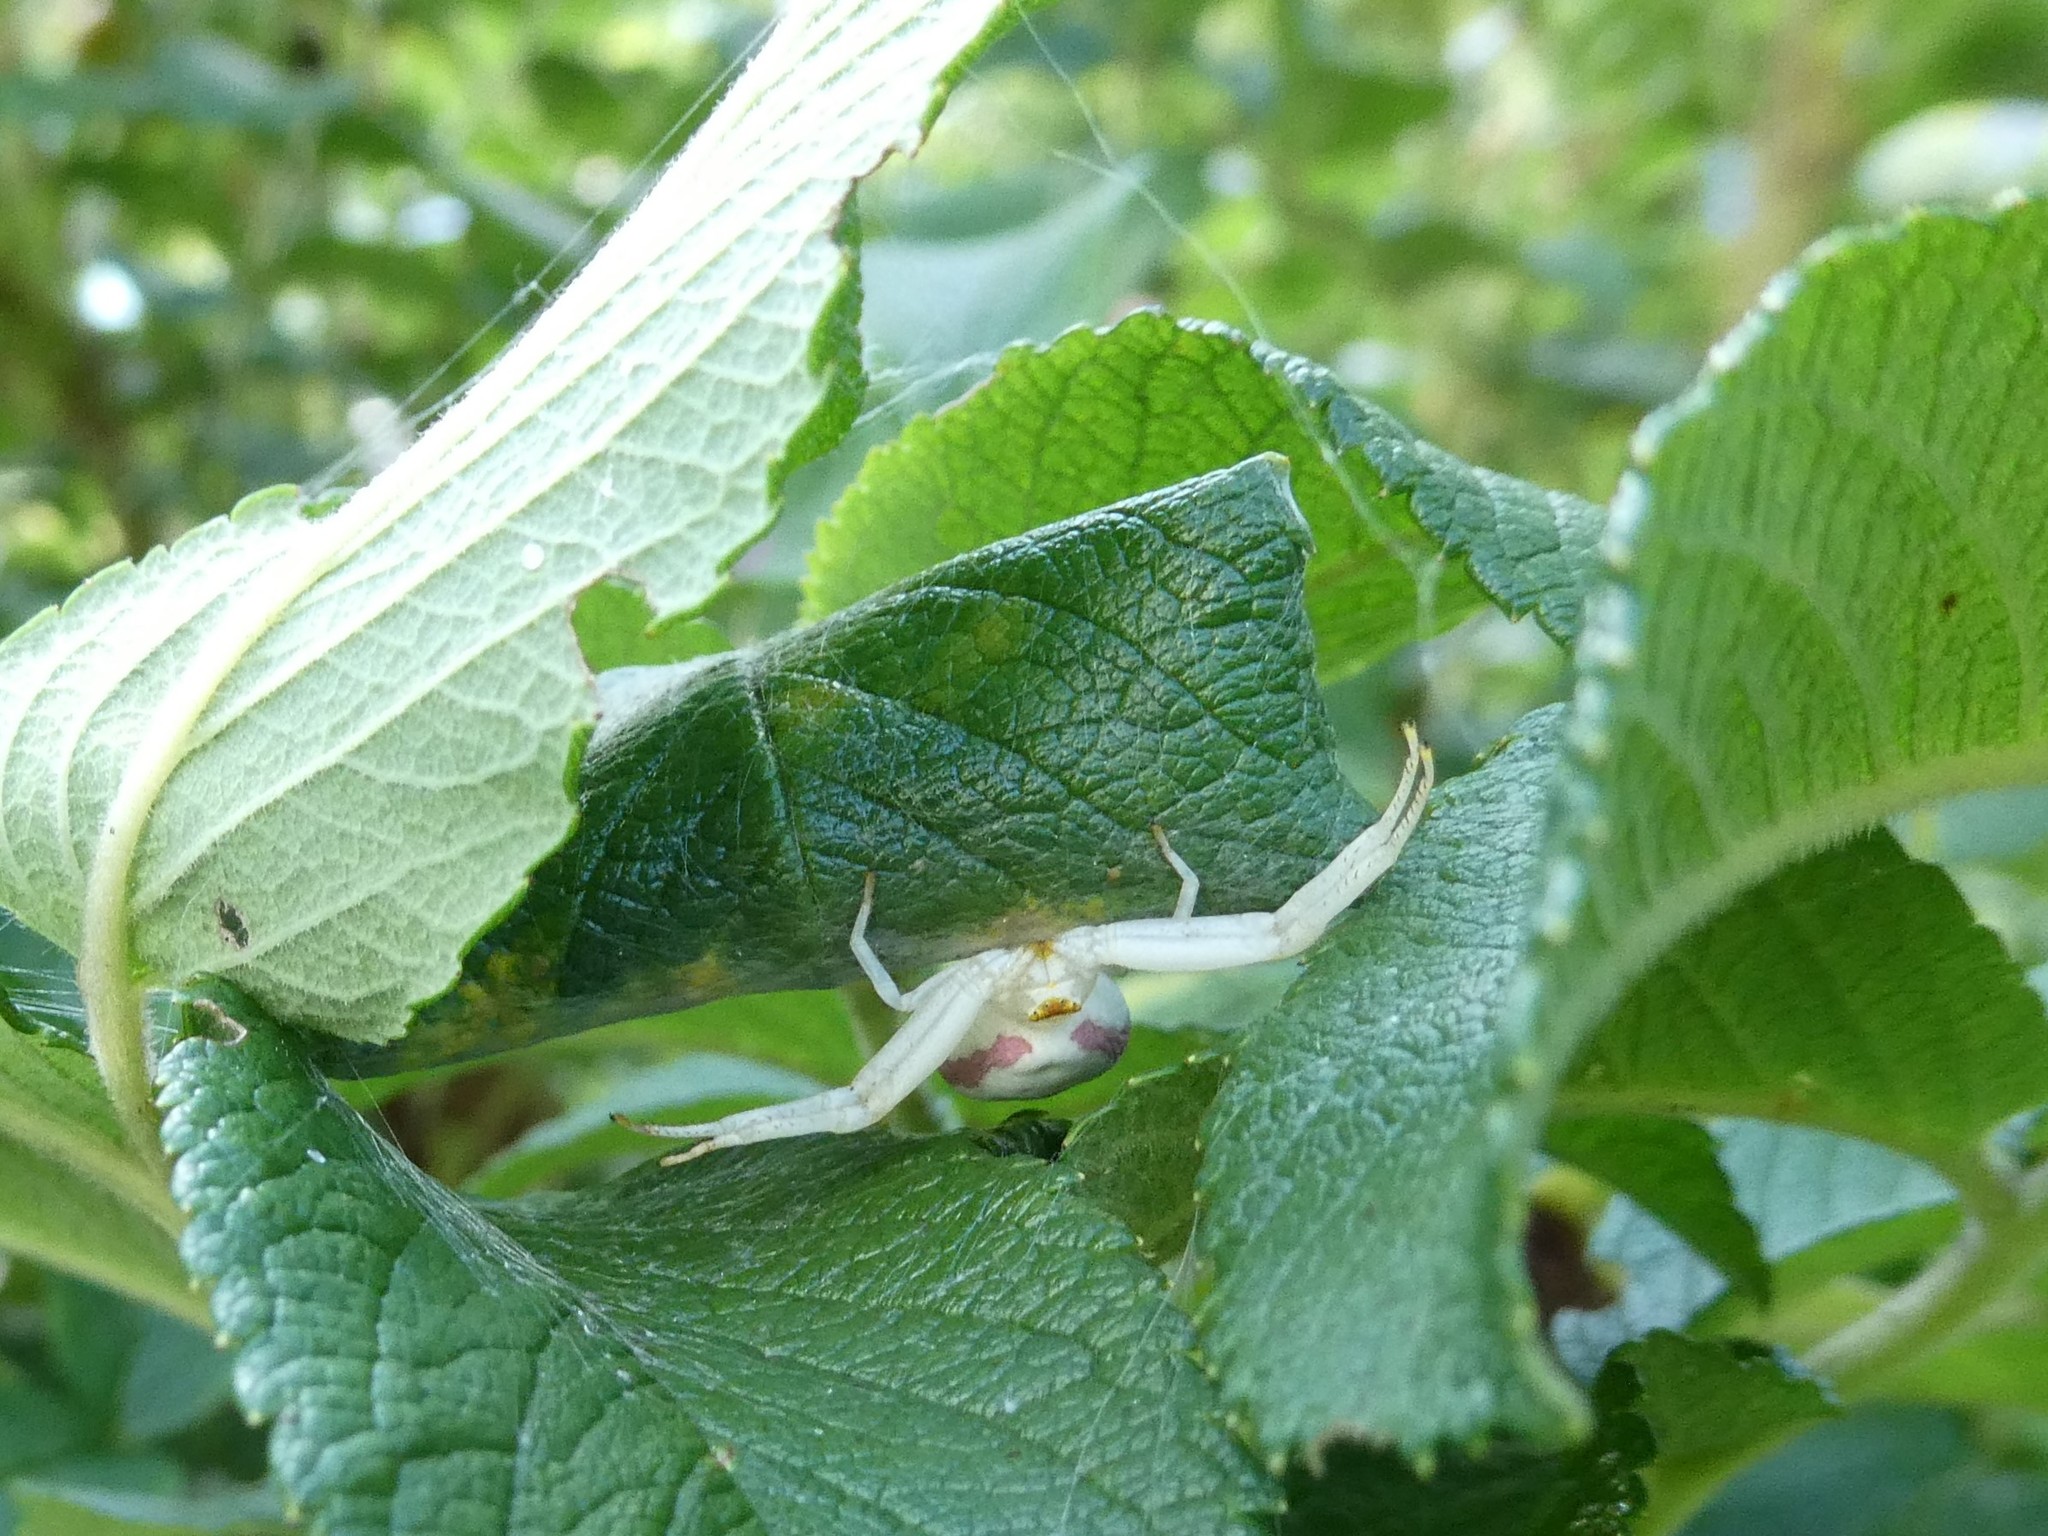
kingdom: Animalia
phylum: Arthropoda
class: Arachnida
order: Araneae
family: Thomisidae
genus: Misumena
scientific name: Misumena vatia
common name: Goldenrod crab spider
